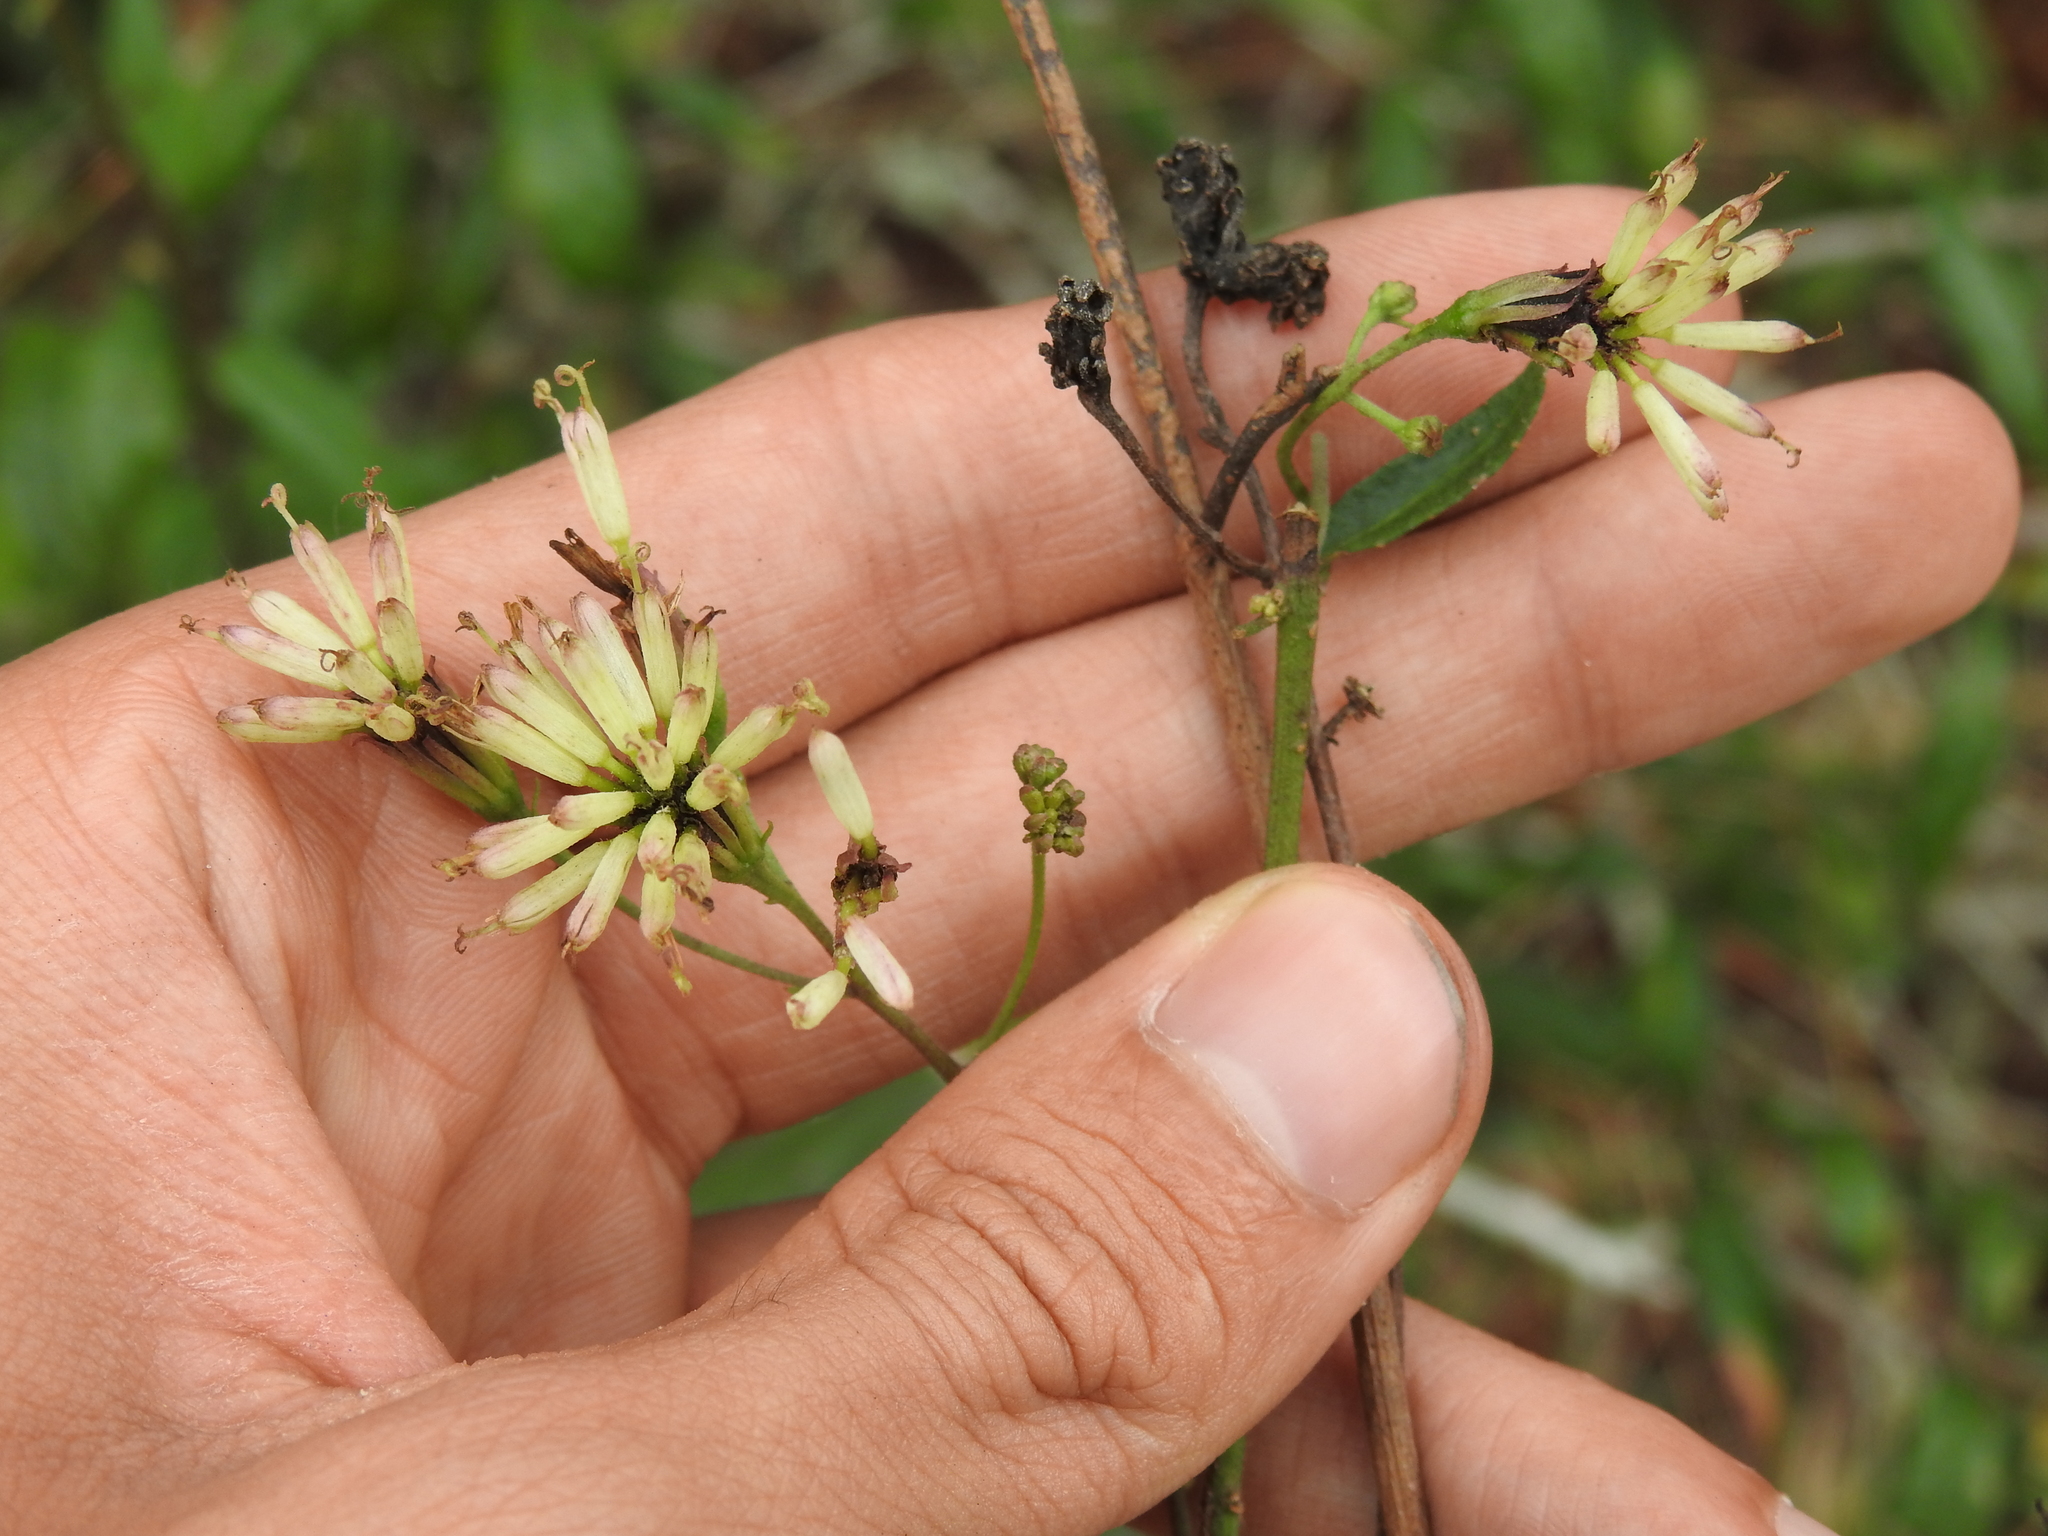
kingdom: Plantae
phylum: Tracheophyta
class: Magnoliopsida
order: Asterales
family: Asteraceae
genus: Palafoxia
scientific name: Palafoxia feayi
